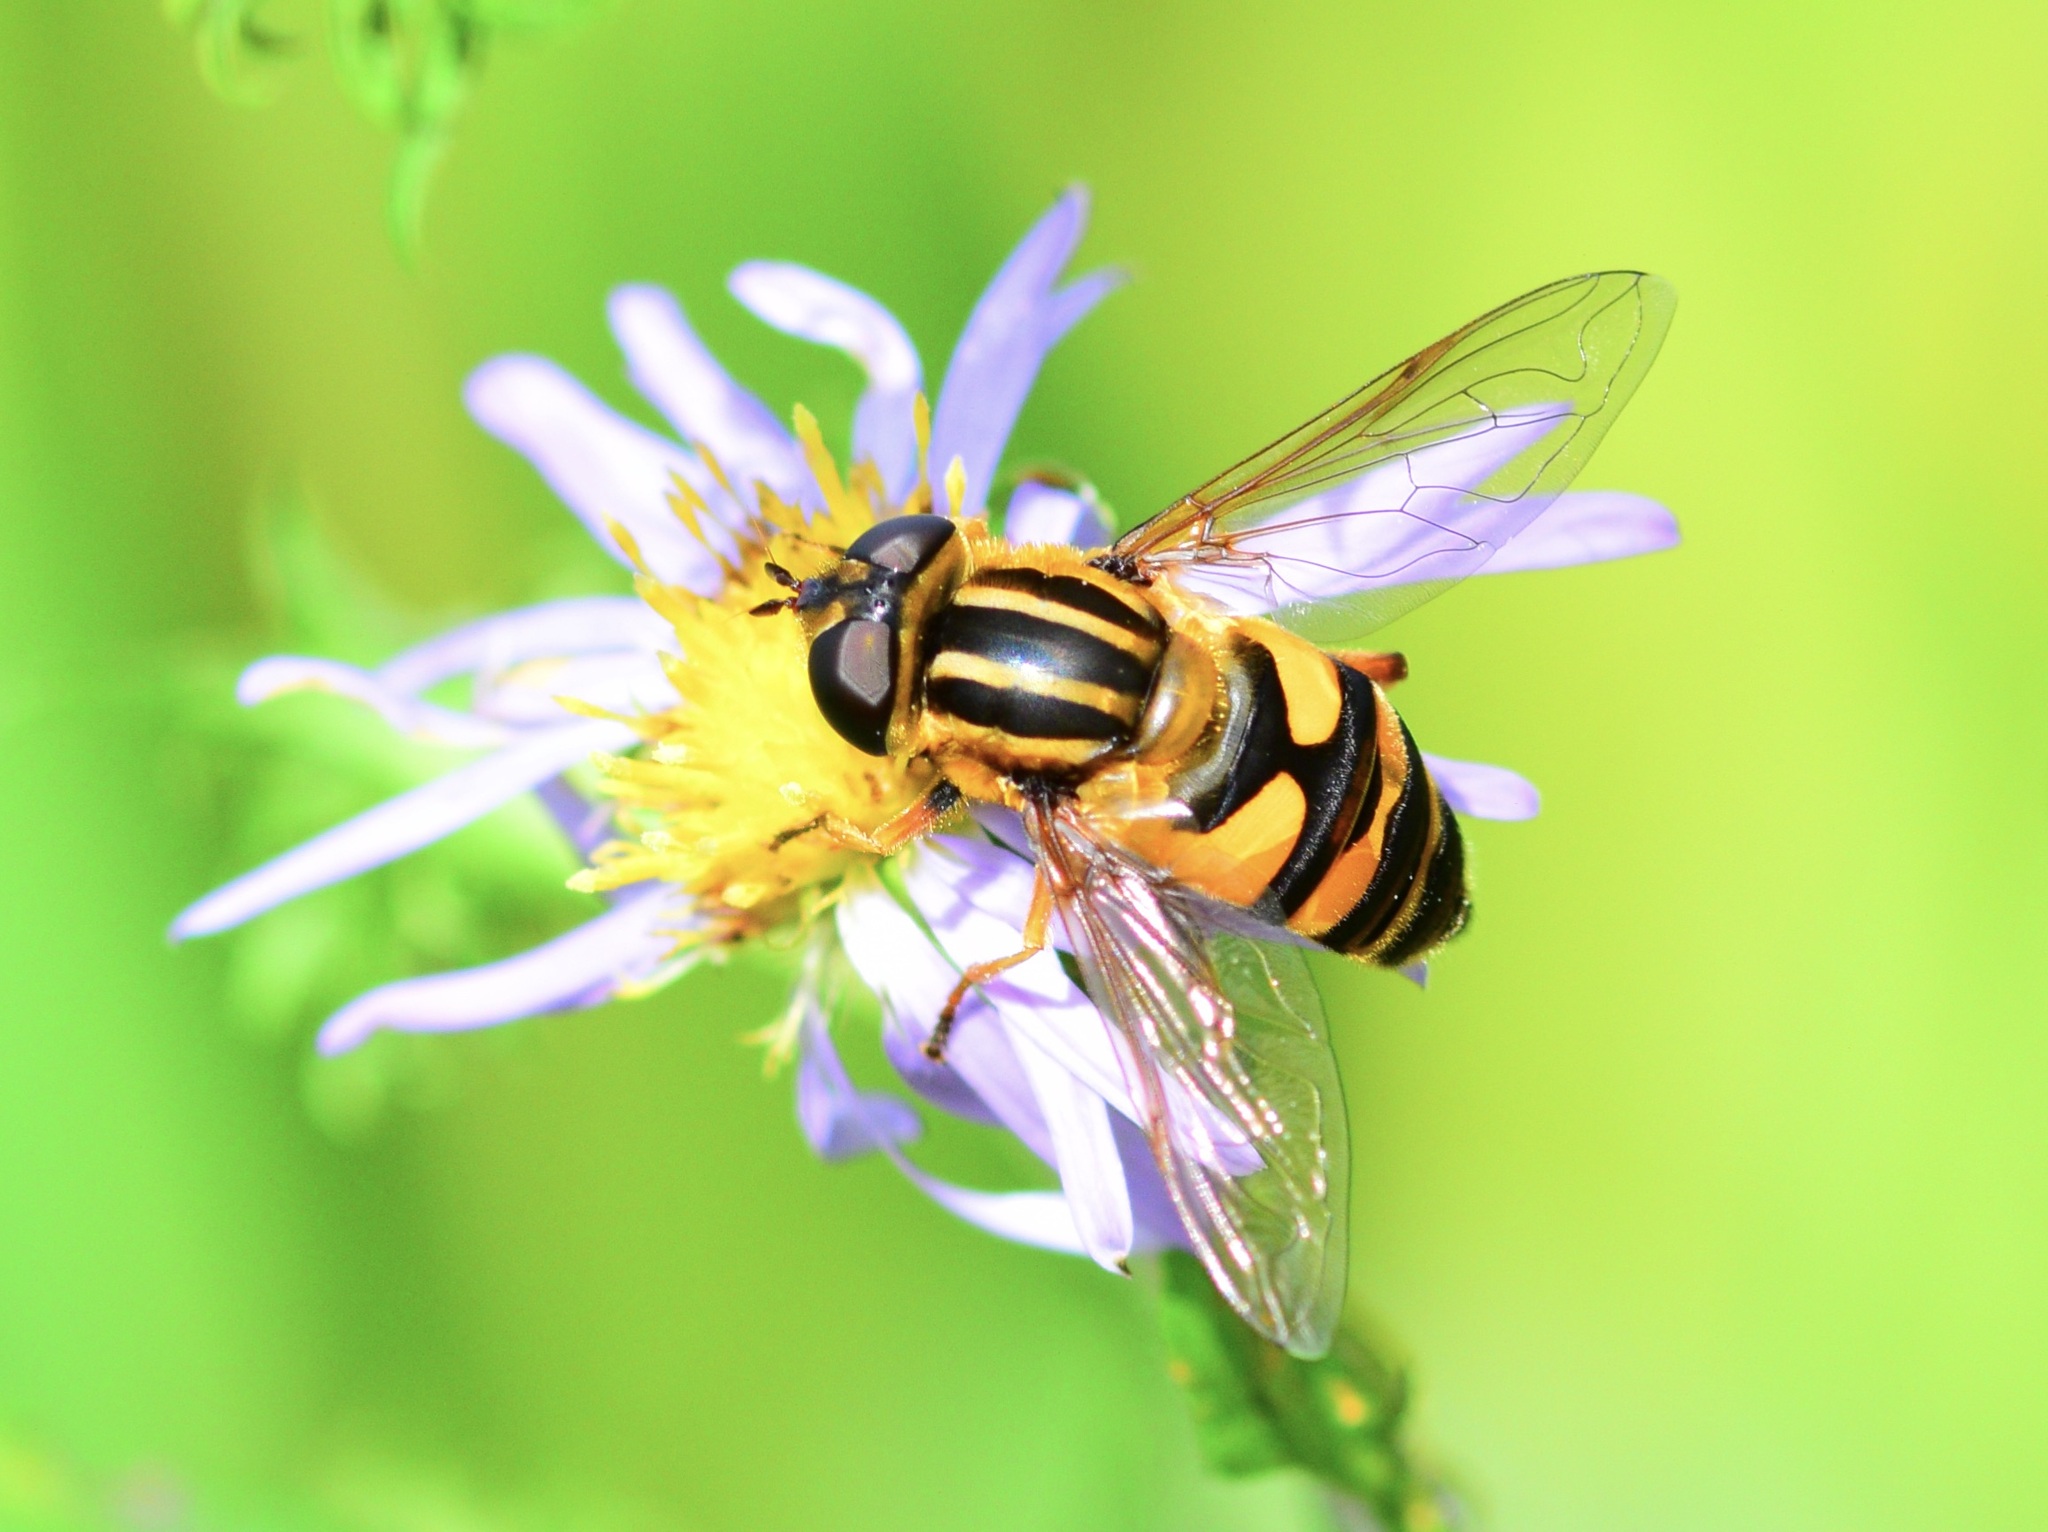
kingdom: Animalia
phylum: Arthropoda
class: Insecta
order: Diptera
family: Syrphidae
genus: Helophilus
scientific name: Helophilus fasciatus
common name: Narrow-headed marsh fly
